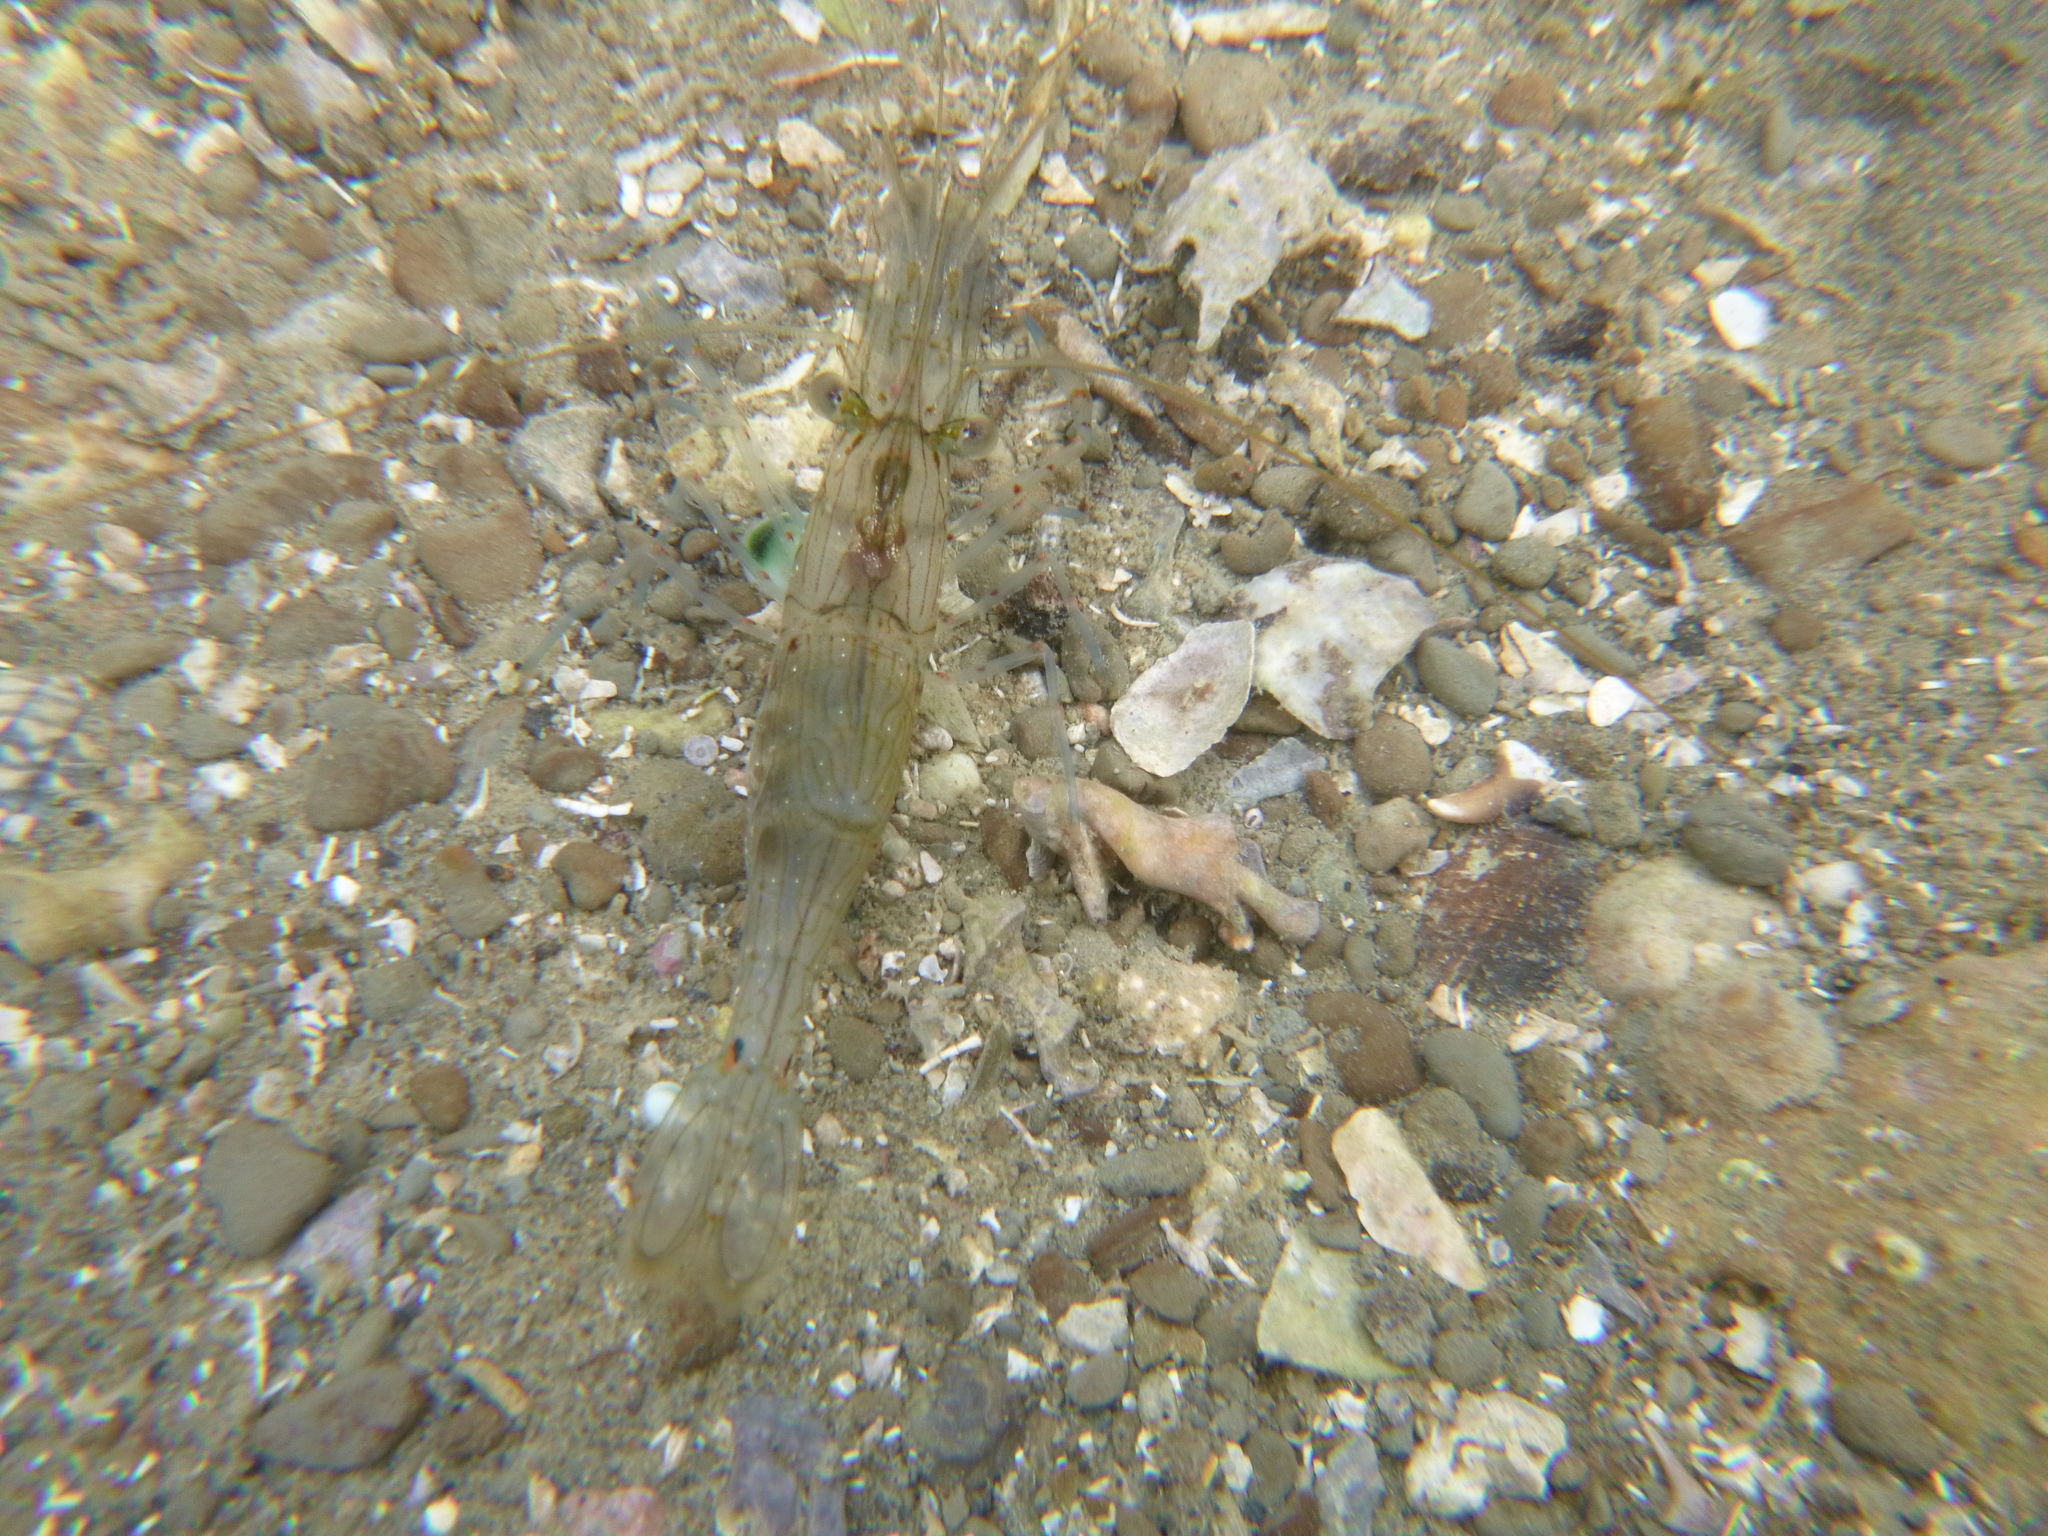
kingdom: Animalia
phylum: Arthropoda
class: Malacostraca
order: Decapoda
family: Palaemonidae
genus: Palaemon
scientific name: Palaemon affinis
